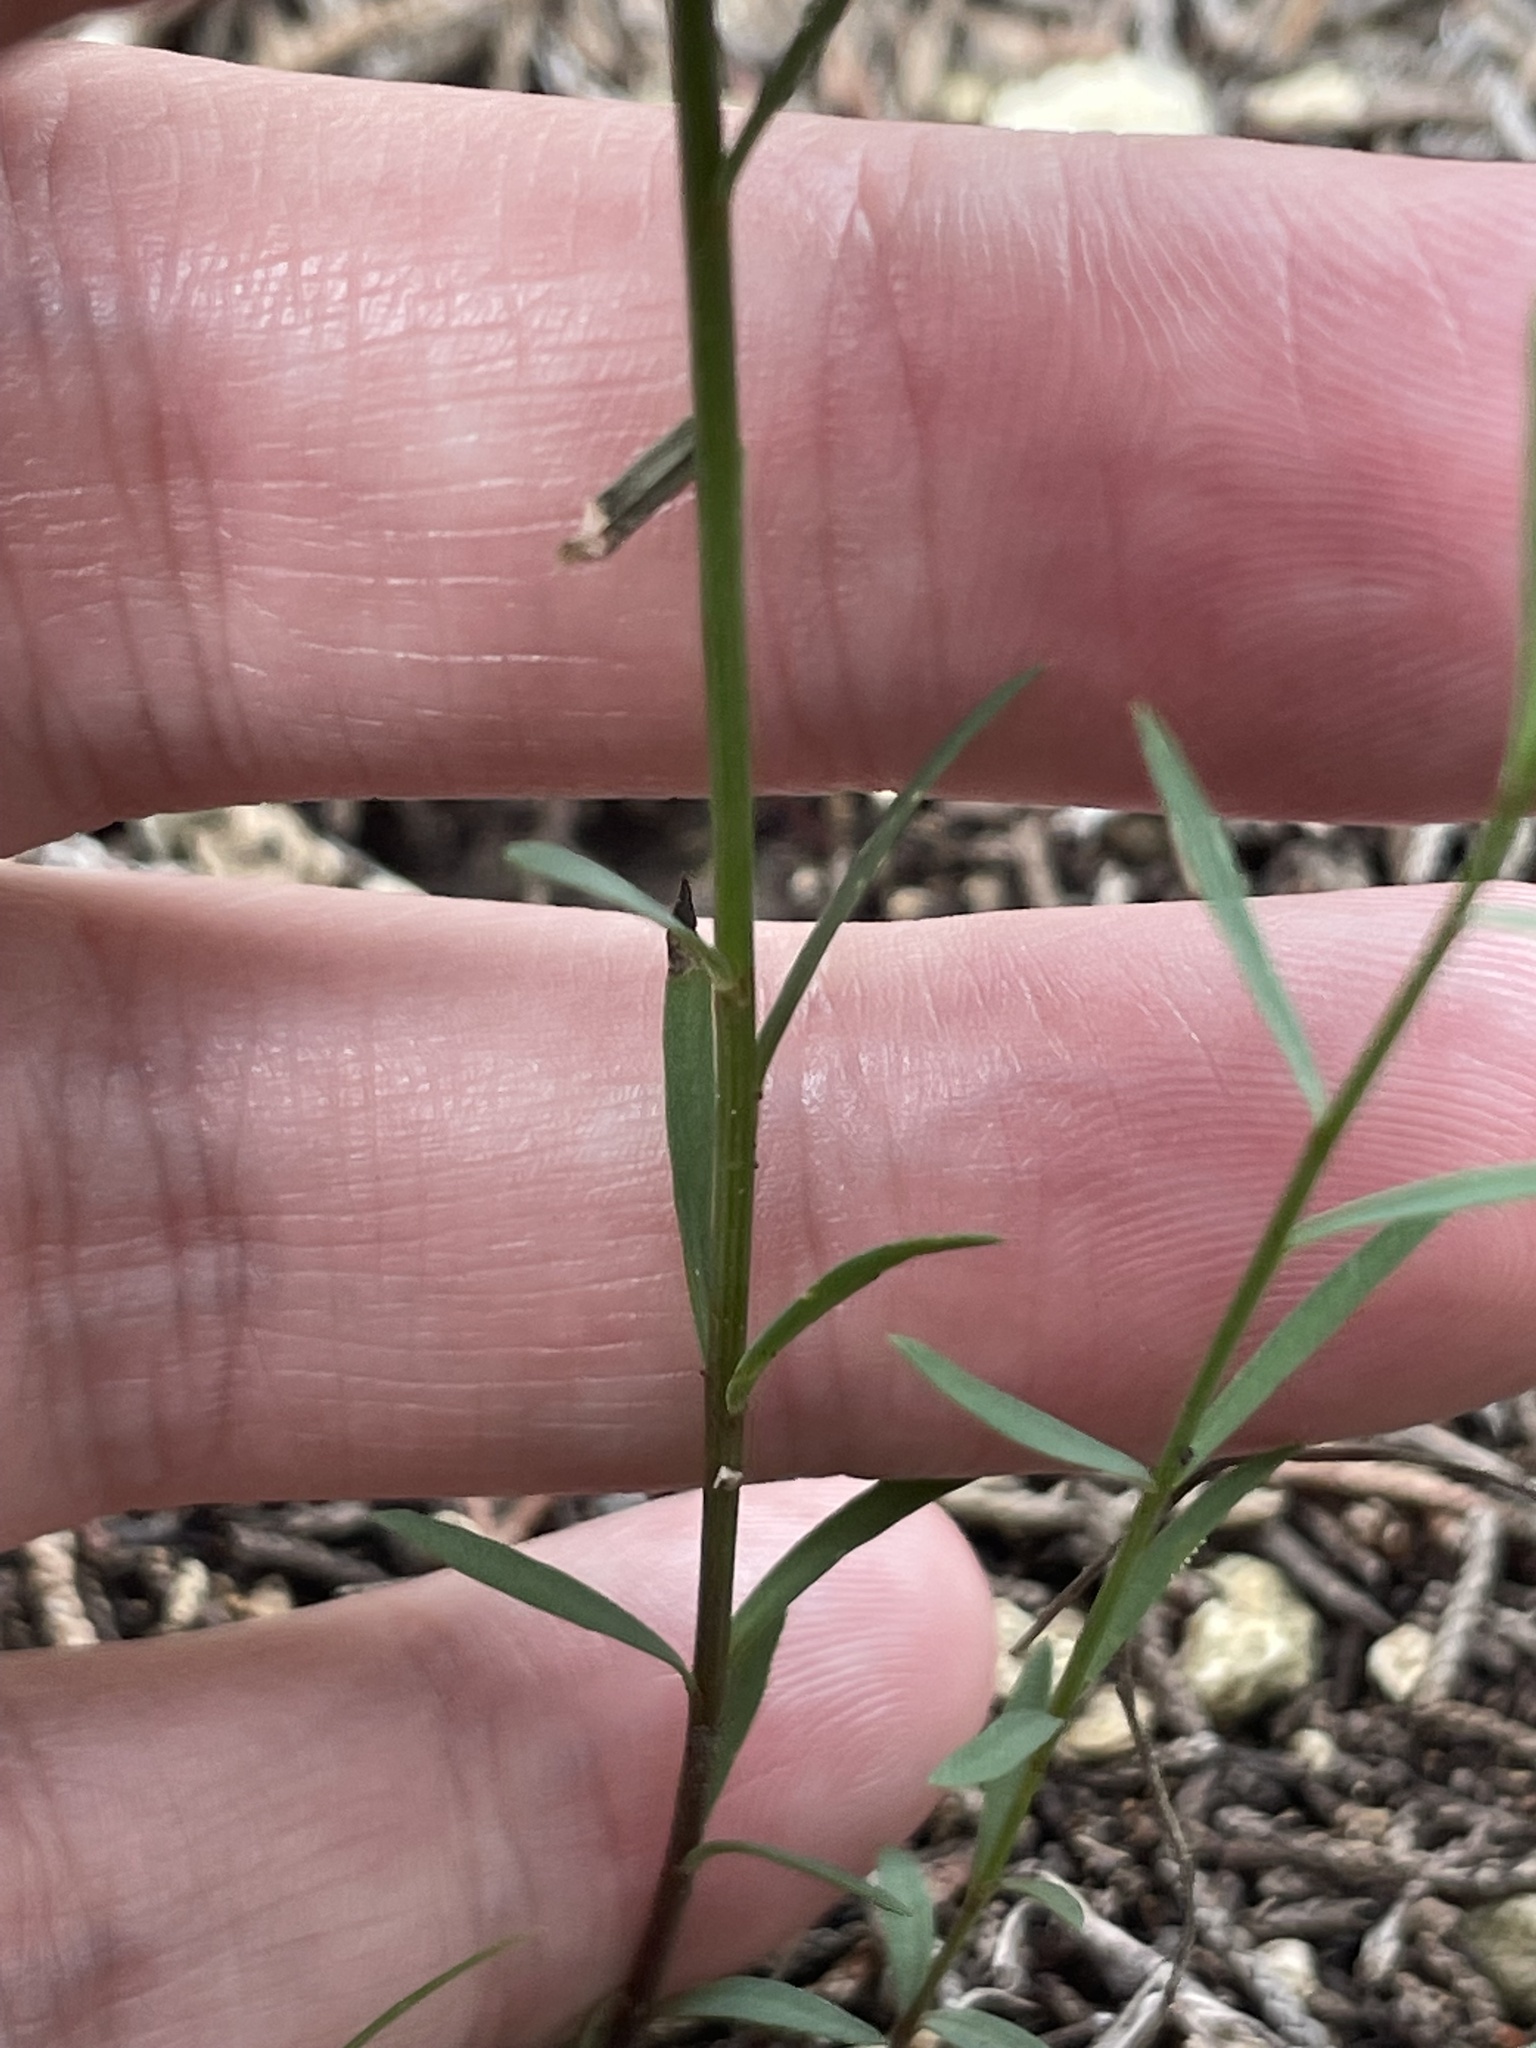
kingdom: Plantae
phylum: Tracheophyta
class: Magnoliopsida
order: Malpighiales
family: Linaceae
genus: Linum
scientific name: Linum rupestre
